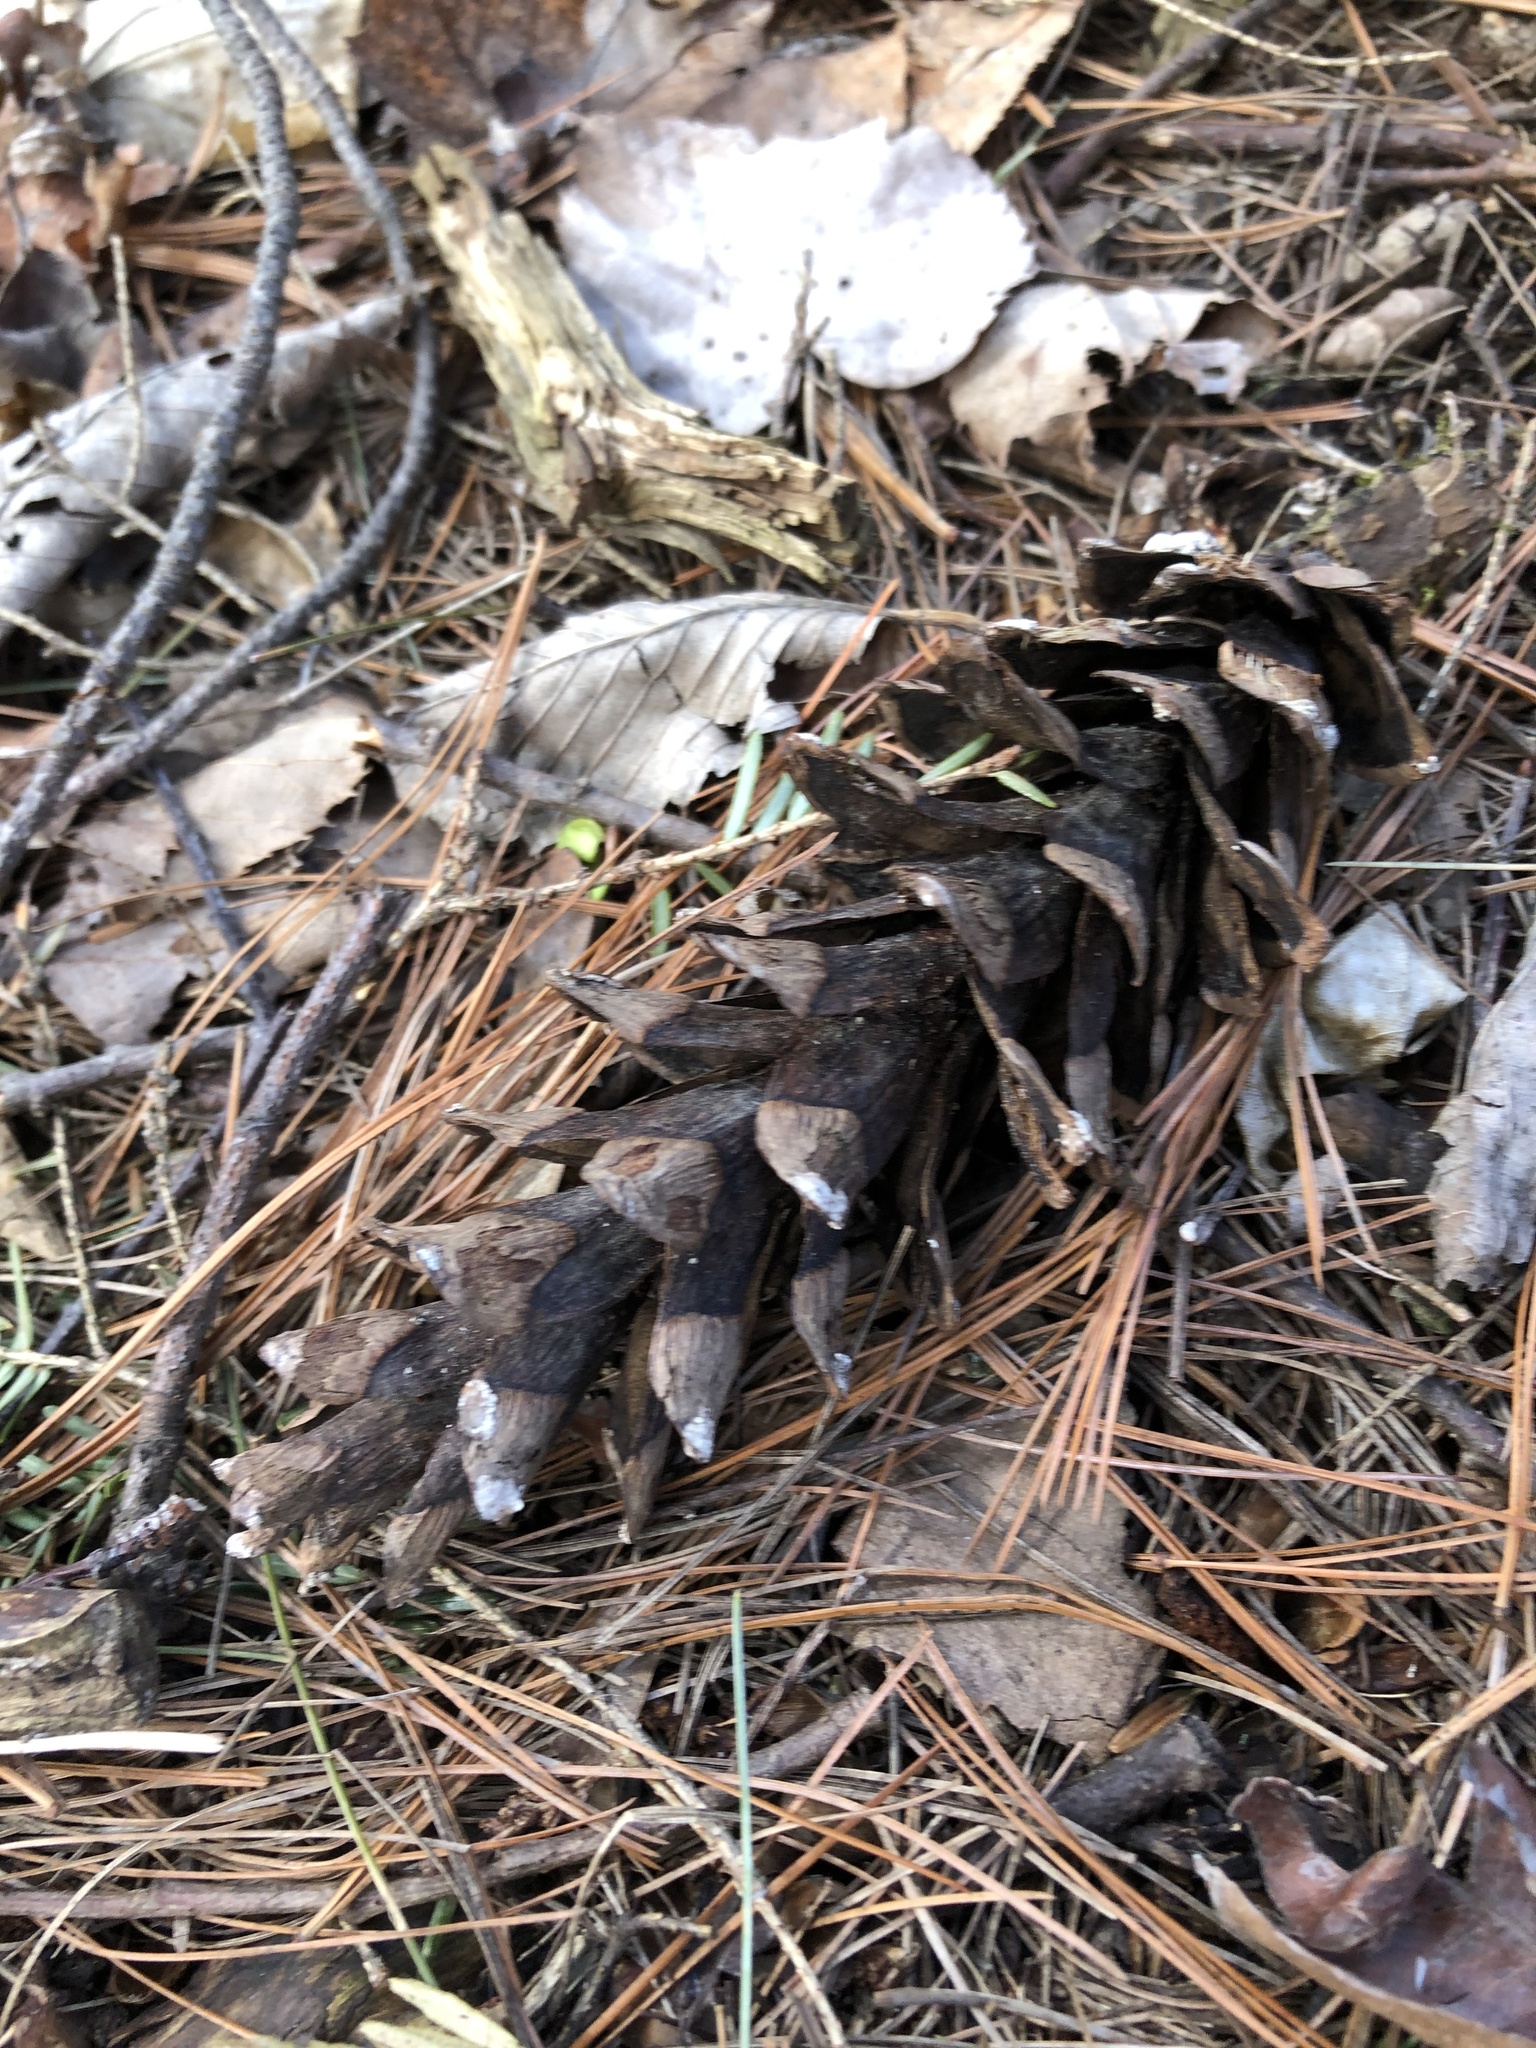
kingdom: Plantae
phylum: Tracheophyta
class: Pinopsida
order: Pinales
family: Pinaceae
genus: Pinus
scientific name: Pinus strobus
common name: Weymouth pine
